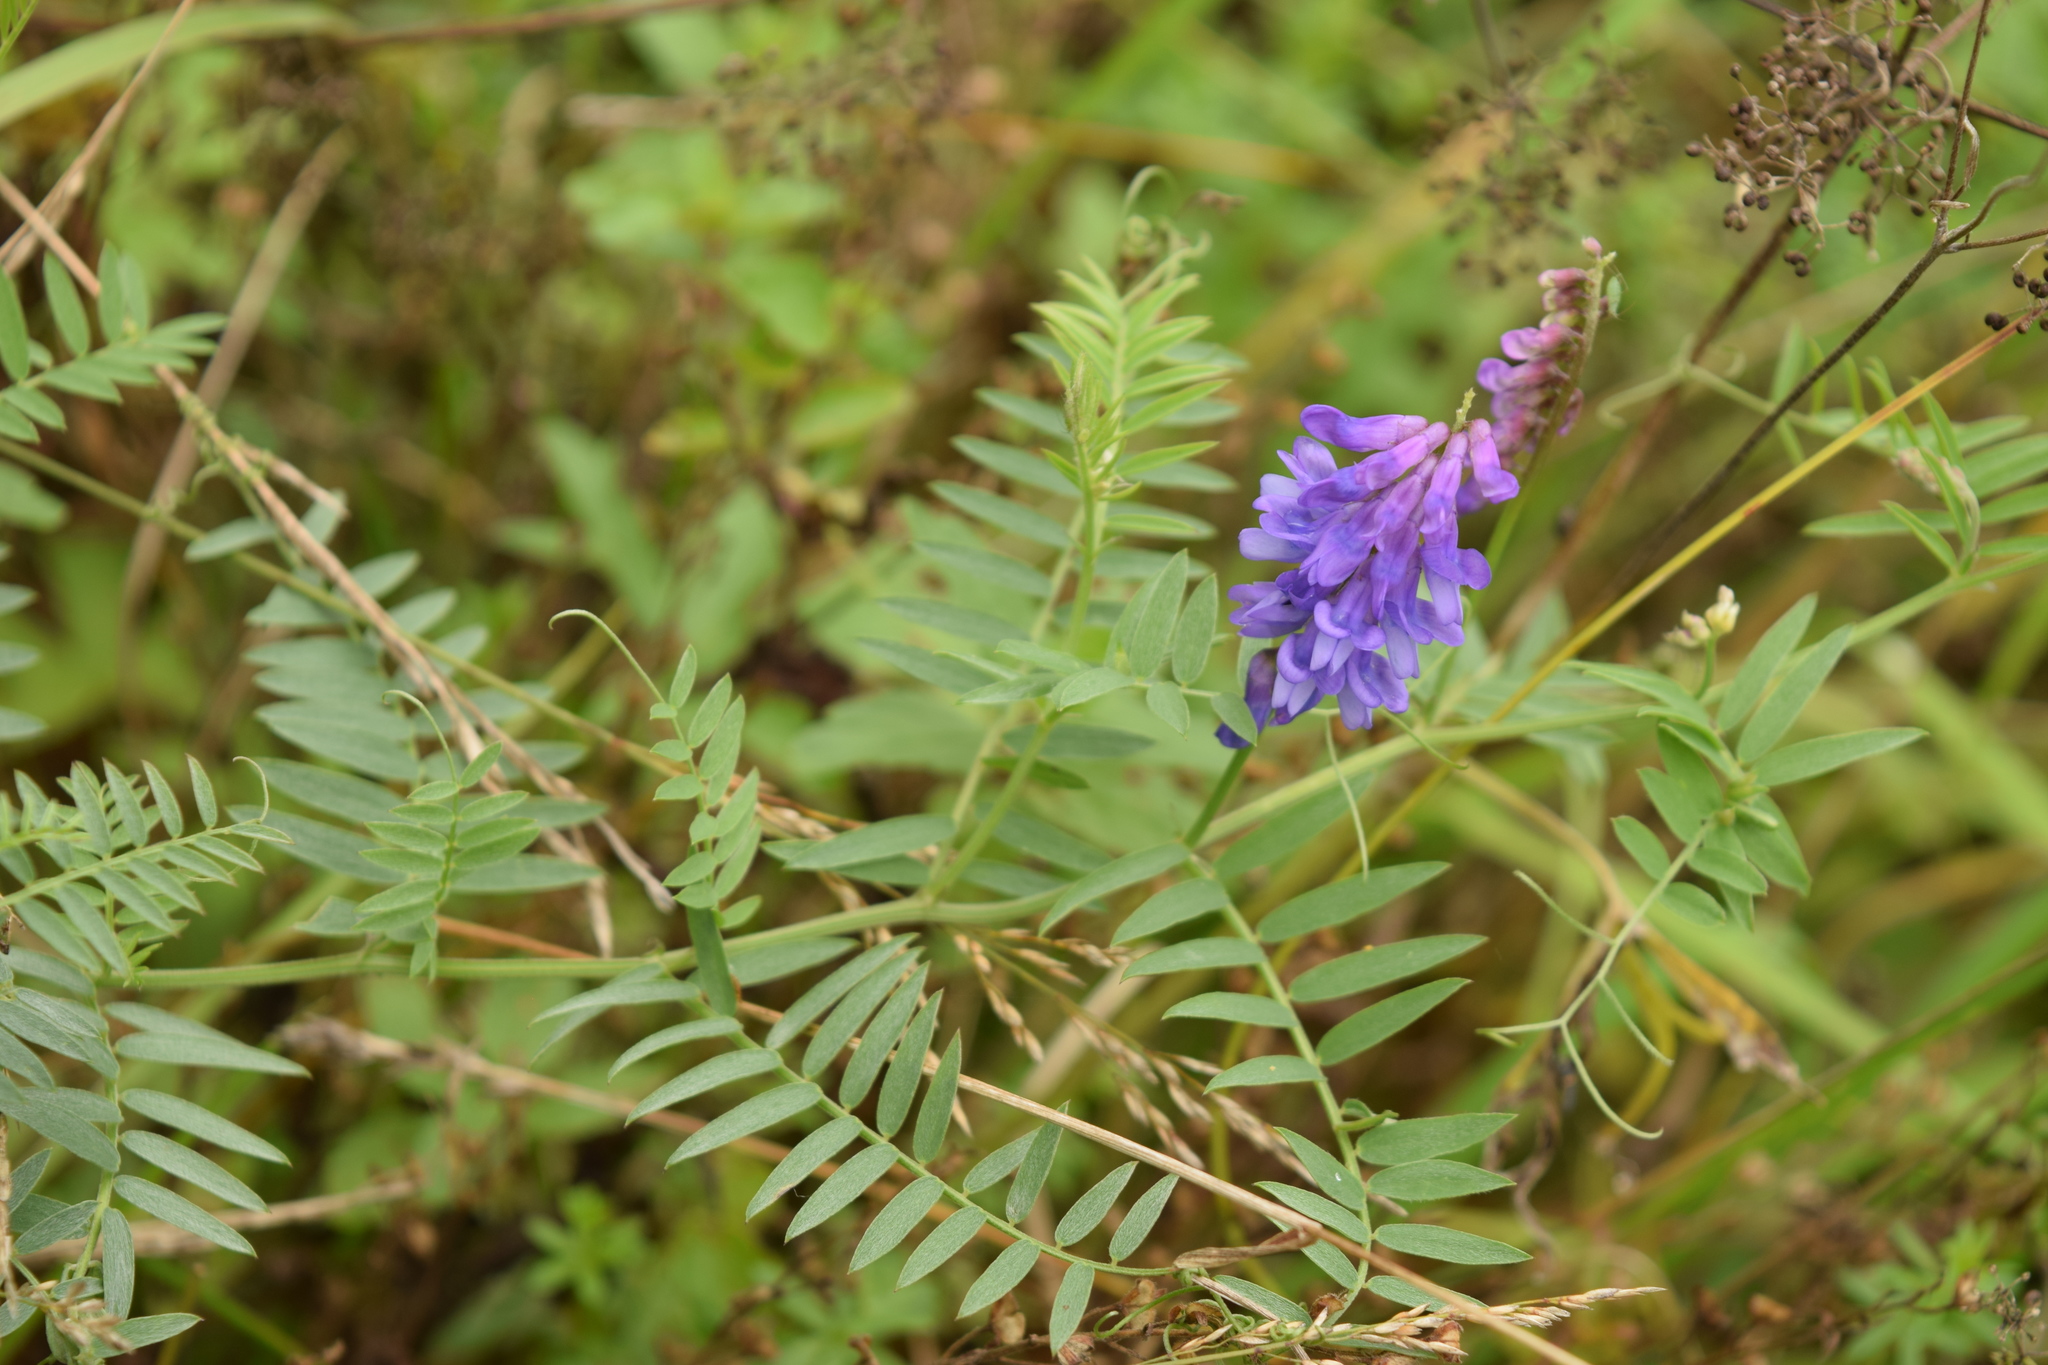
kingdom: Plantae
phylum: Tracheophyta
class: Magnoliopsida
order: Fabales
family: Fabaceae
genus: Vicia
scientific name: Vicia cracca
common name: Bird vetch
